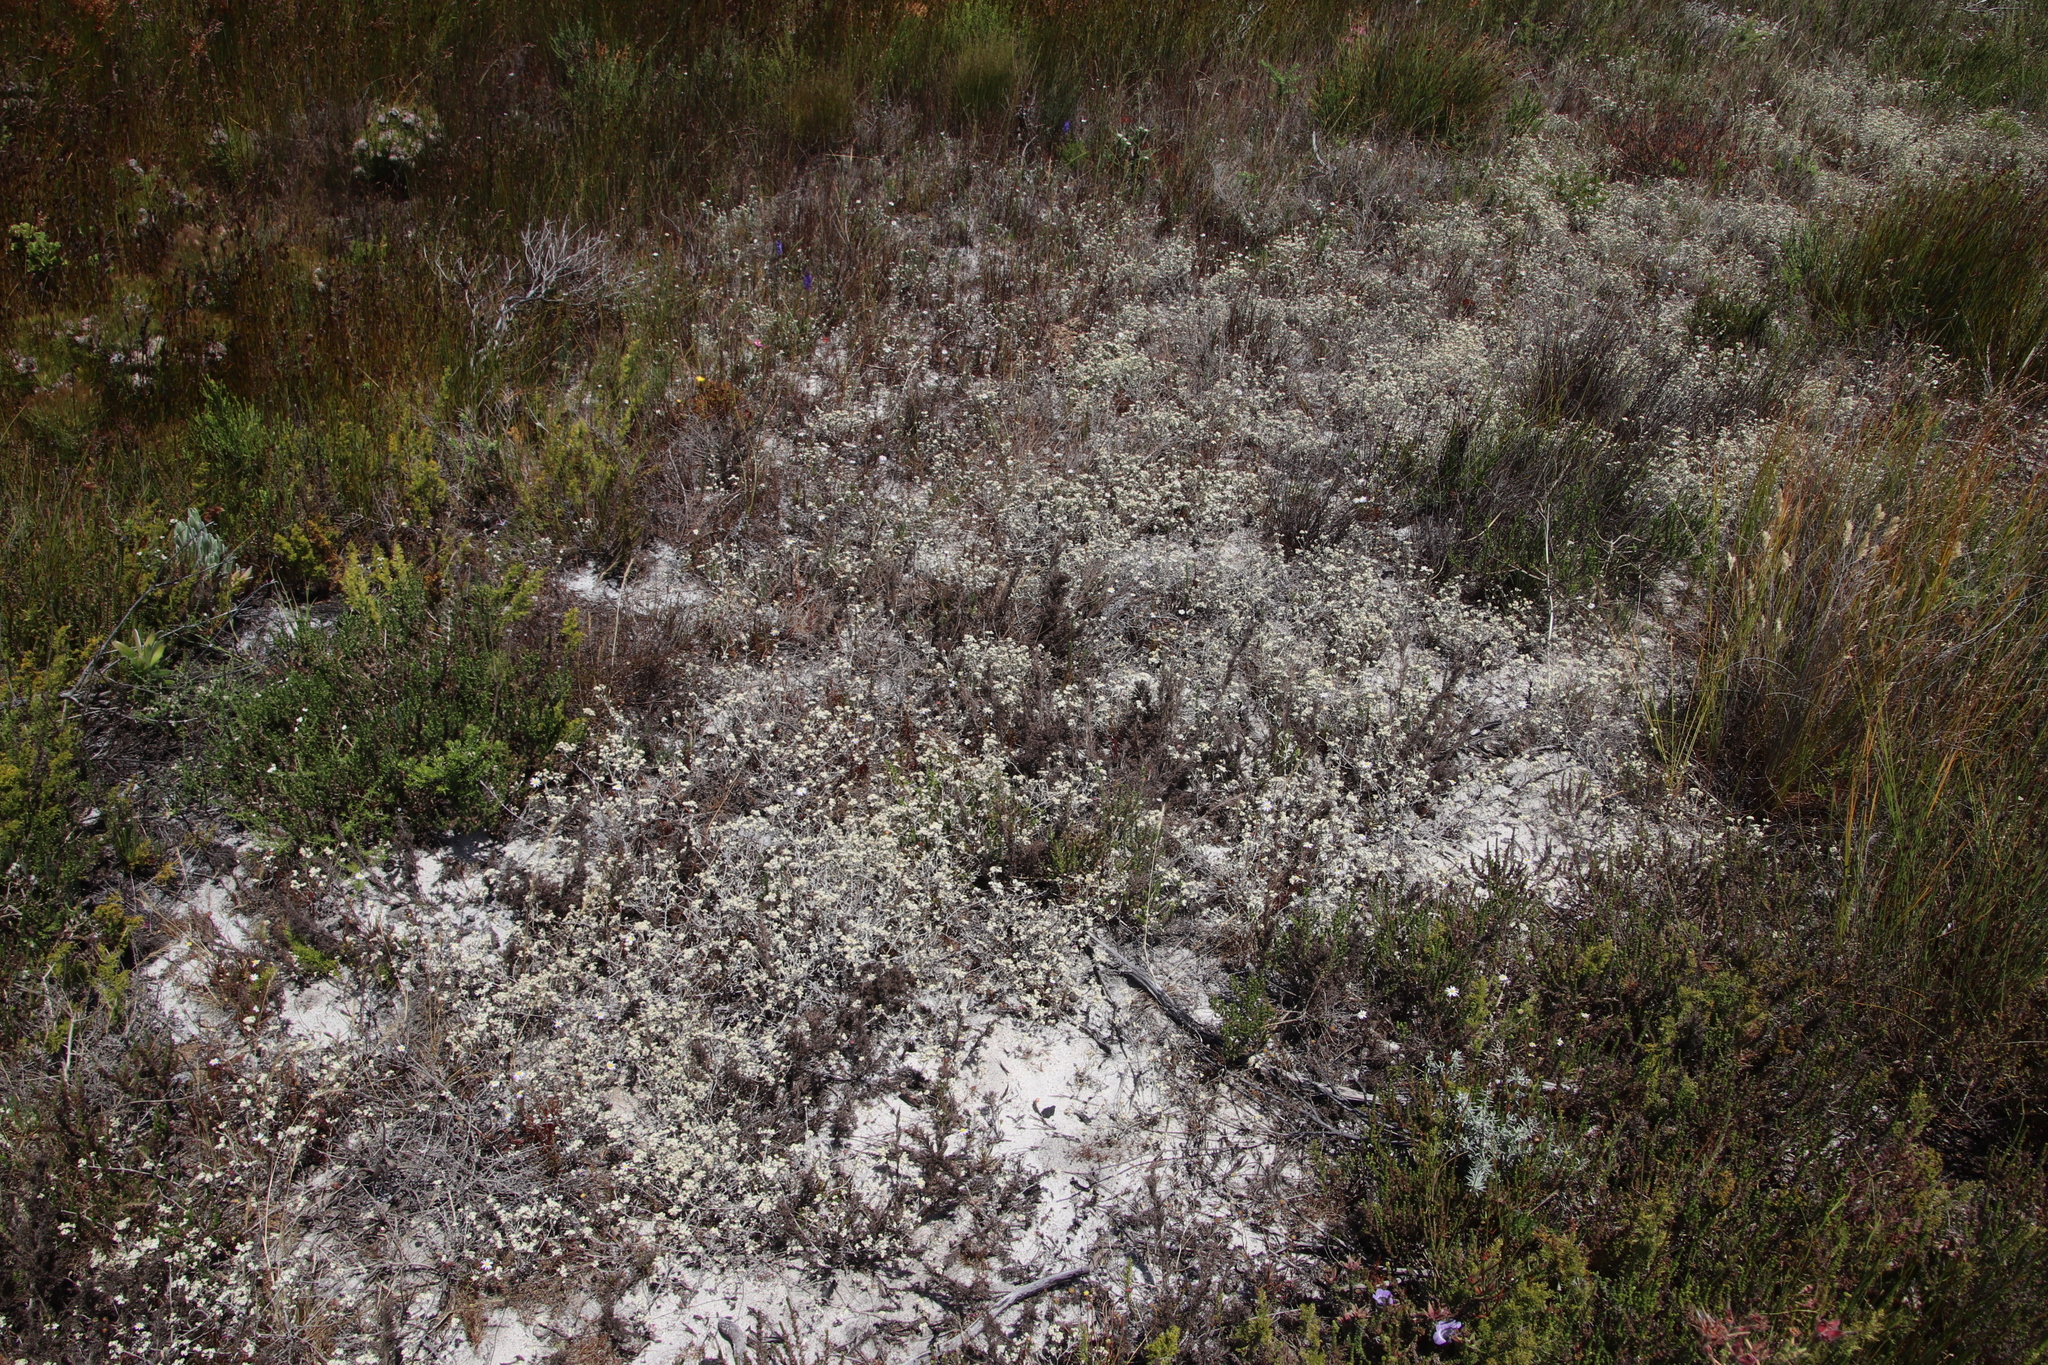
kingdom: Plantae
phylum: Tracheophyta
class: Magnoliopsida
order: Asterales
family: Asteraceae
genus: Helichrysum
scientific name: Helichrysum indicum
